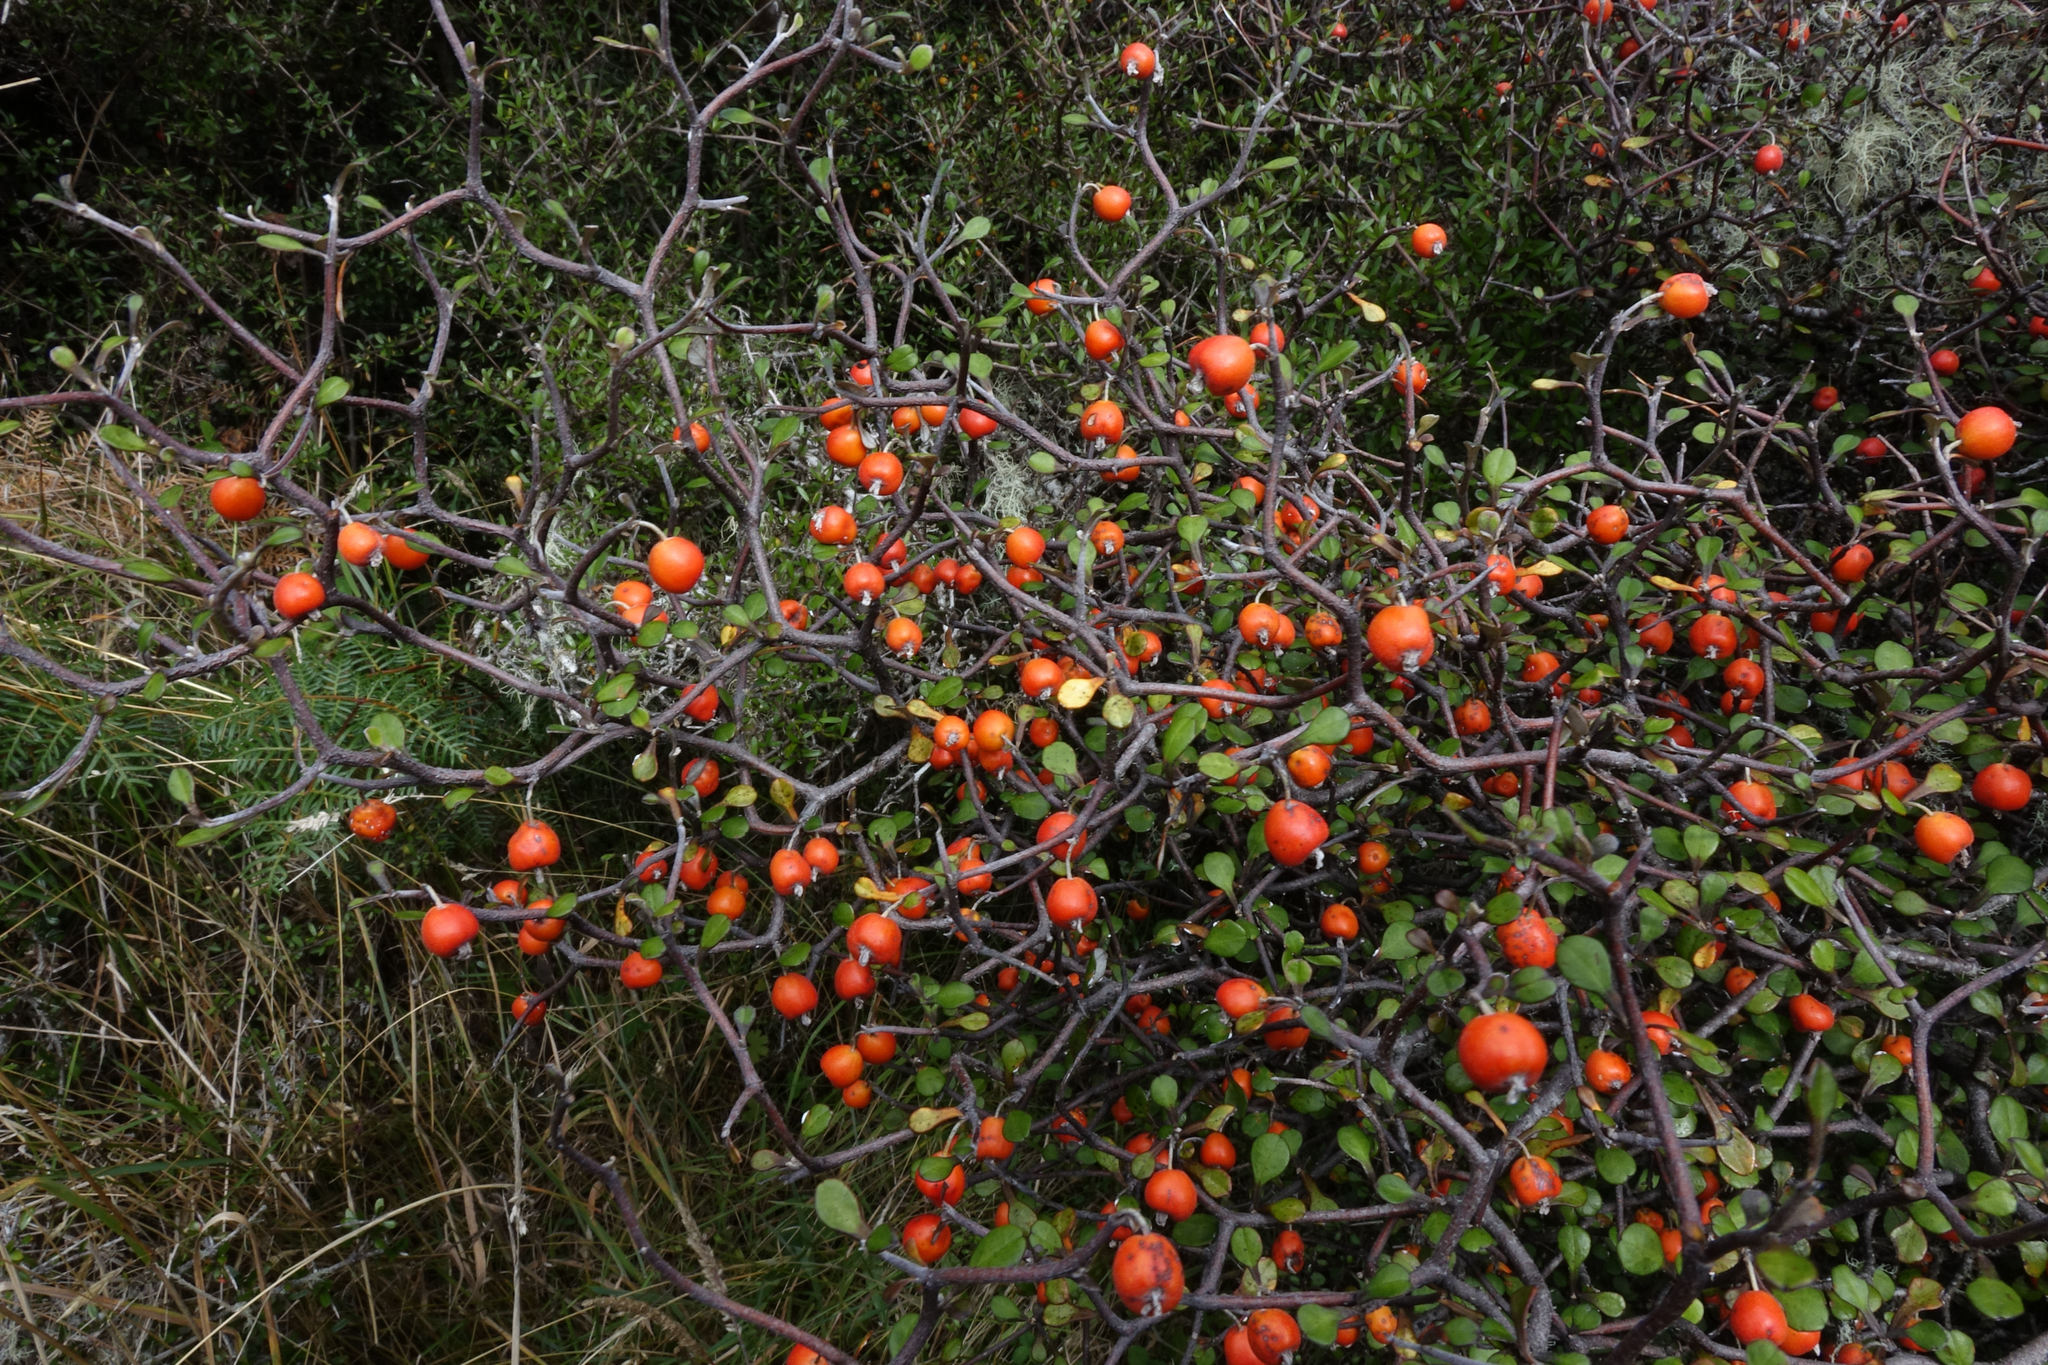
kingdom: Plantae
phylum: Tracheophyta
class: Magnoliopsida
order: Asterales
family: Argophyllaceae
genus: Corokia
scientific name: Corokia cotoneaster
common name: Wire nettingbush
